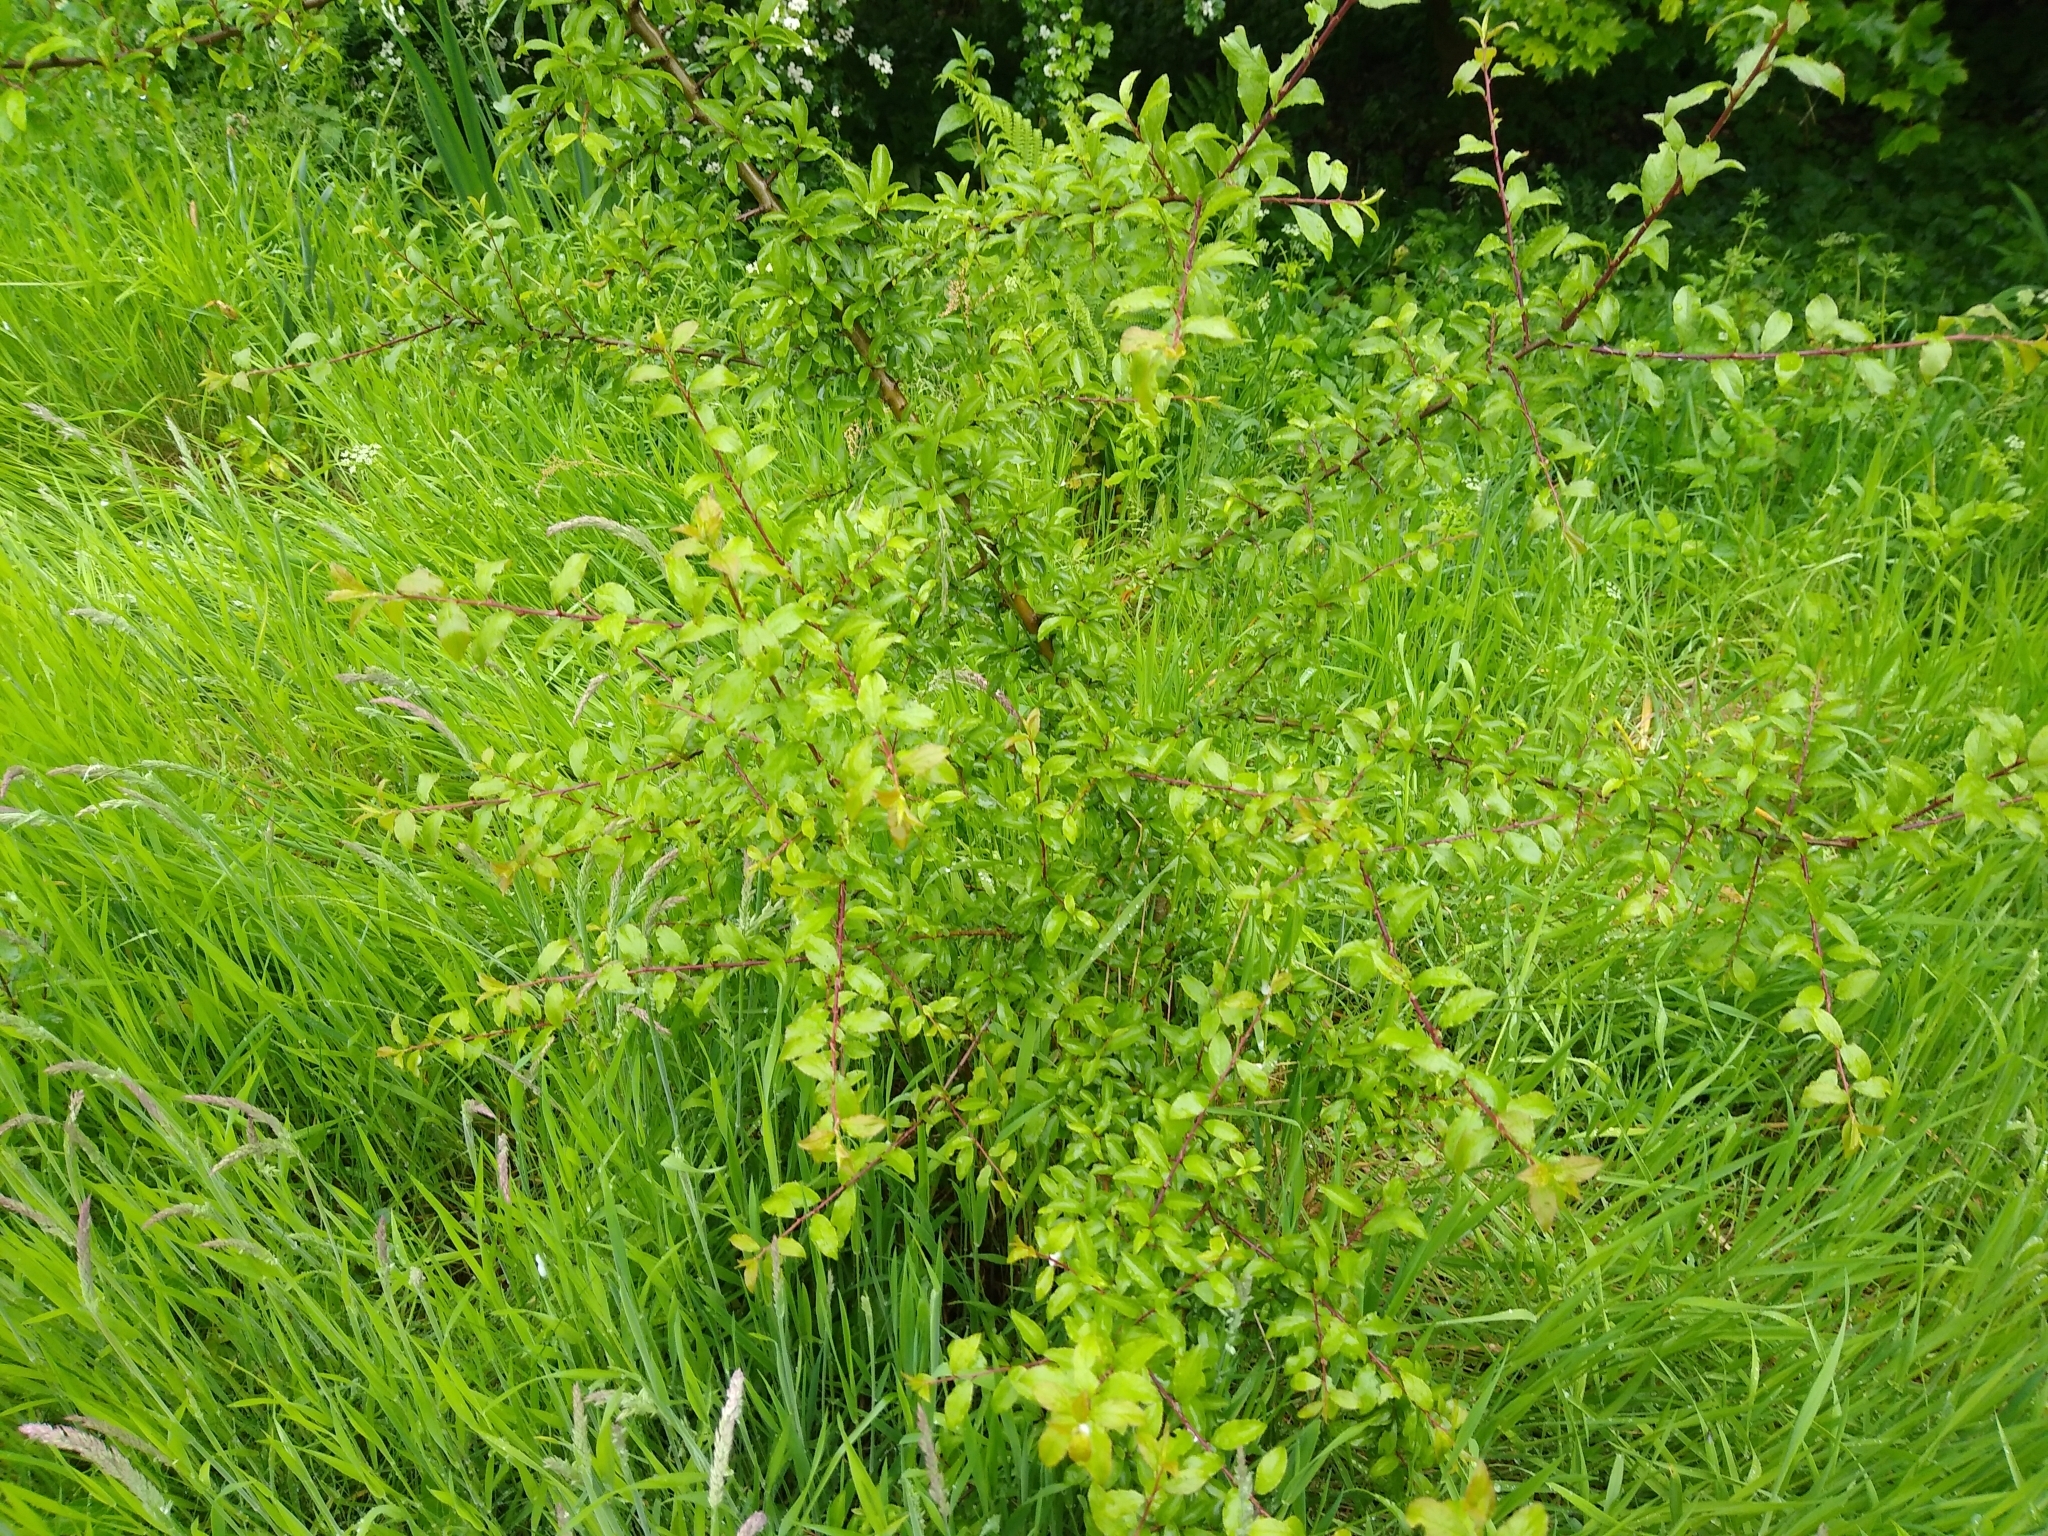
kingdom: Plantae
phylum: Tracheophyta
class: Magnoliopsida
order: Rosales
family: Rosaceae
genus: Prunus
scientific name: Prunus spinosa
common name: Blackthorn
